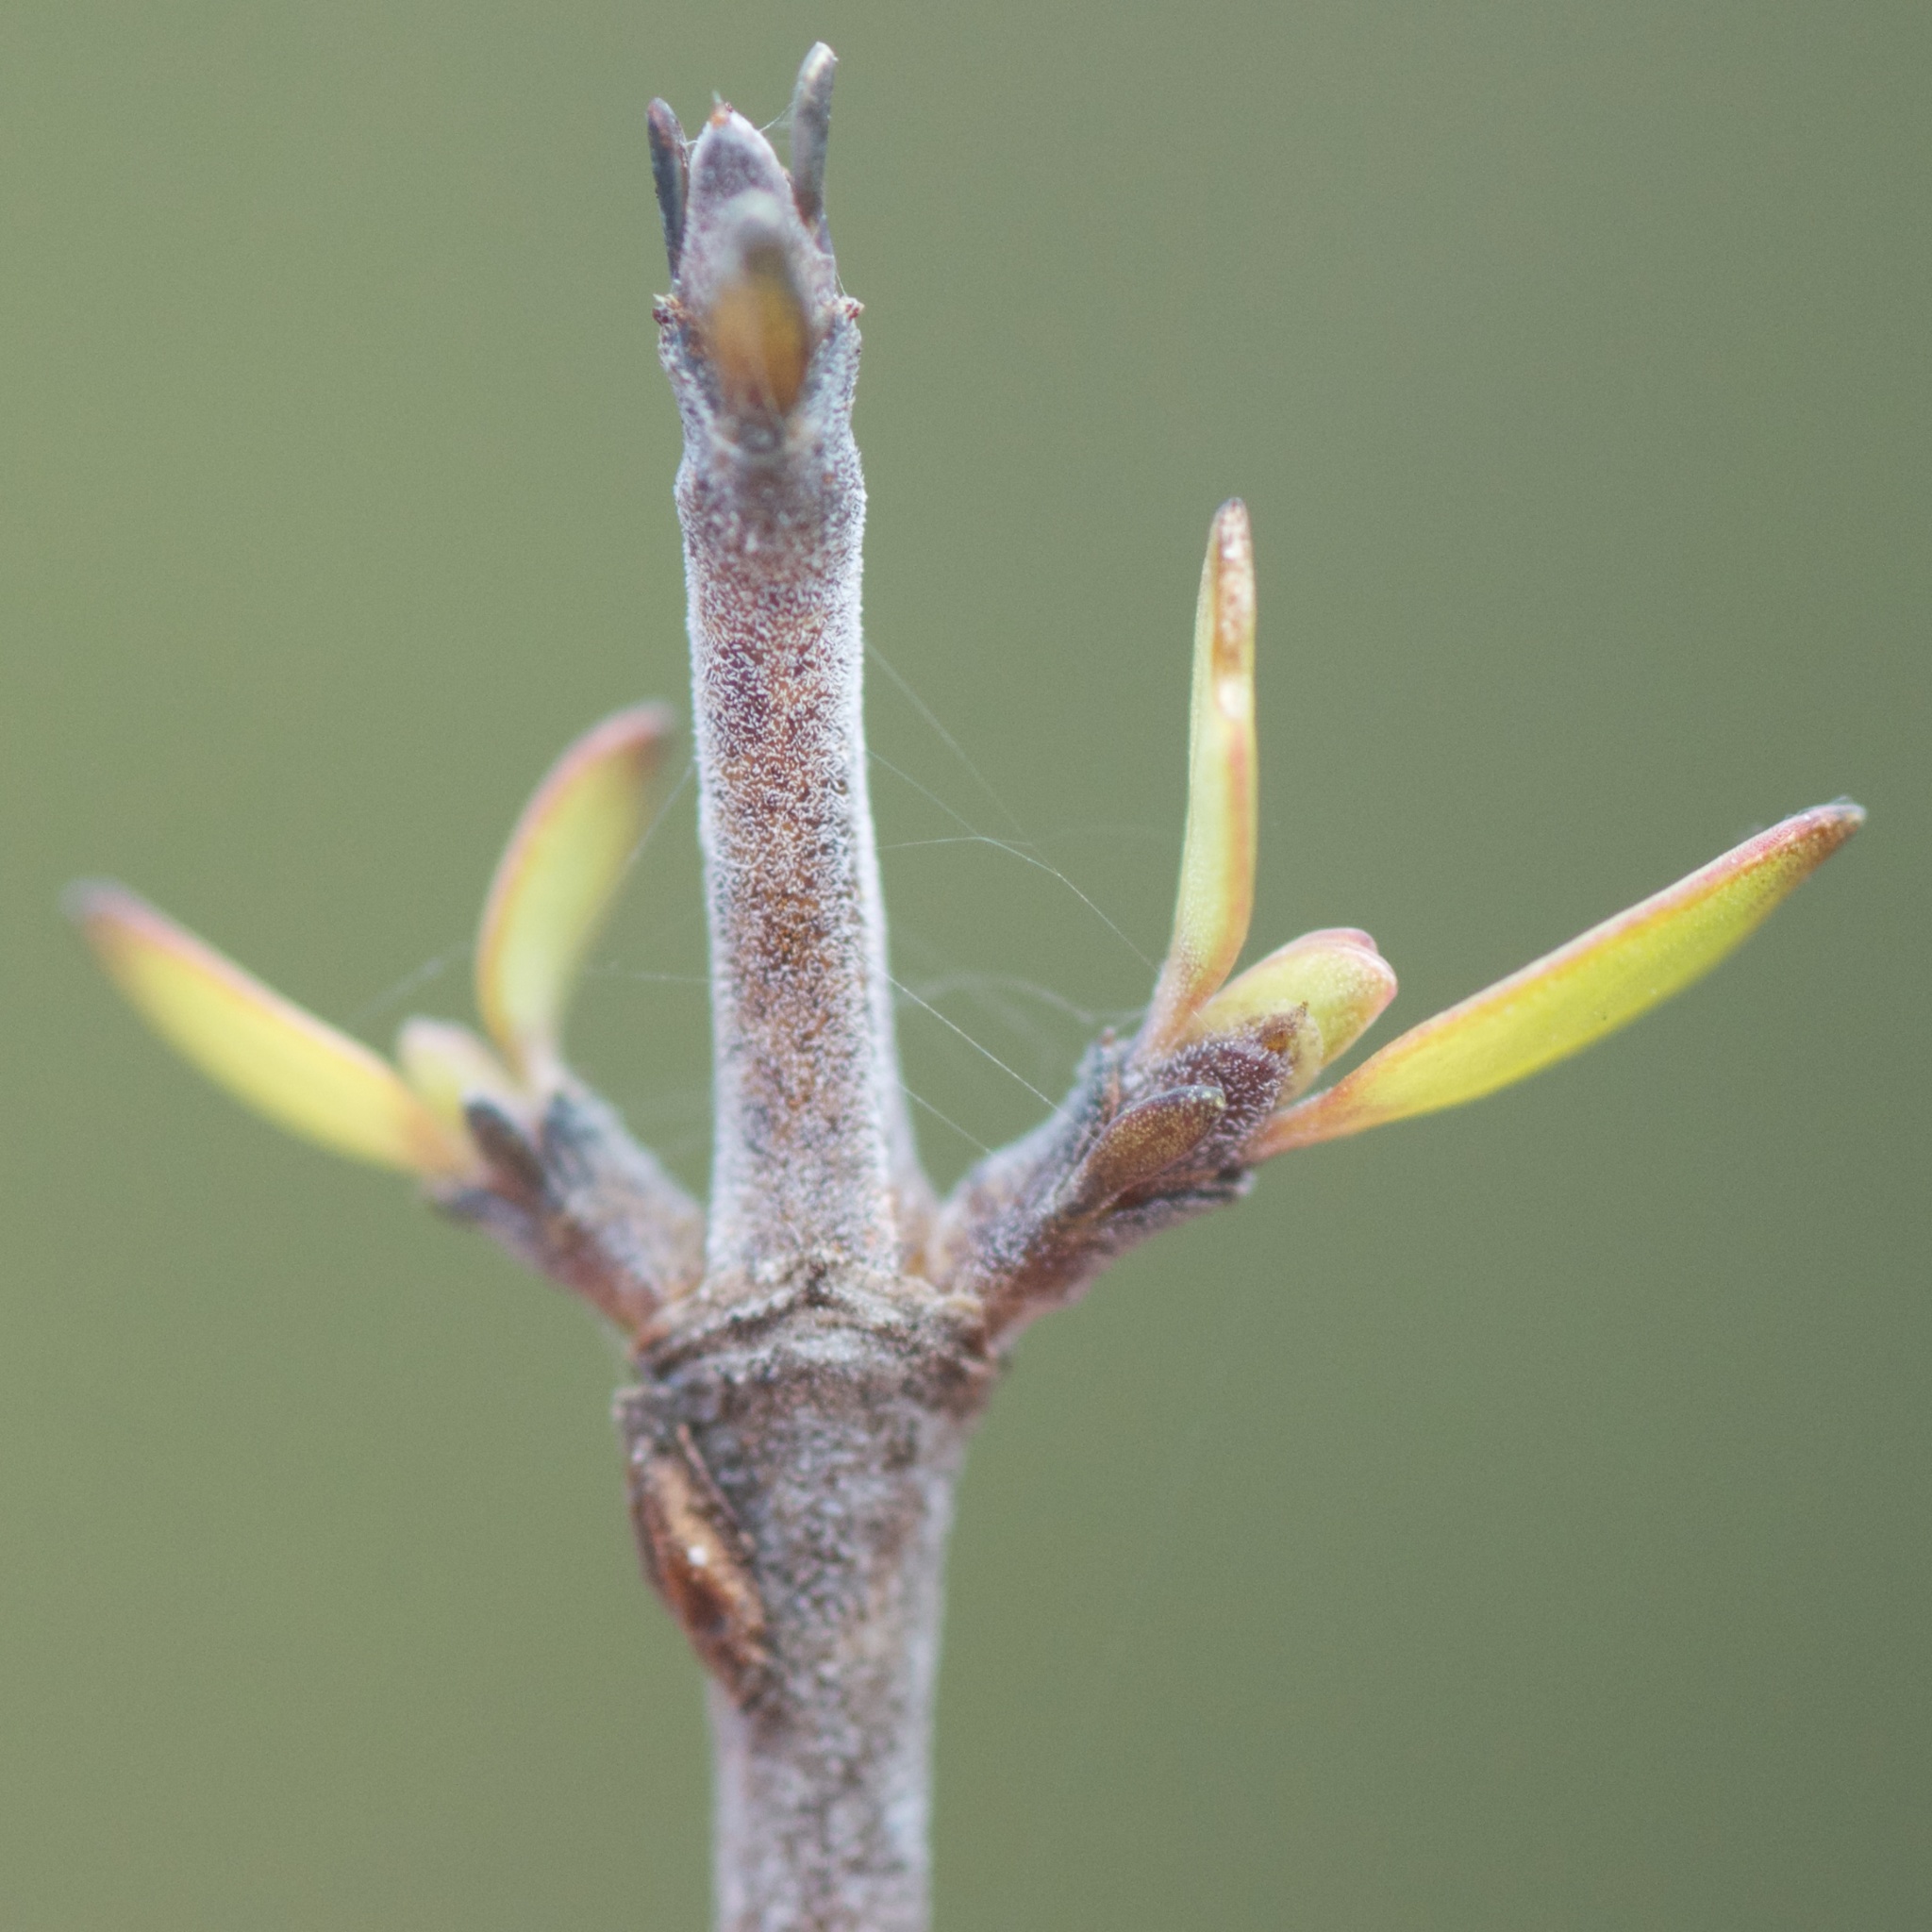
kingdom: Plantae
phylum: Tracheophyta
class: Magnoliopsida
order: Gentianales
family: Rubiaceae
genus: Coprosma
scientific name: Coprosma propinqua
